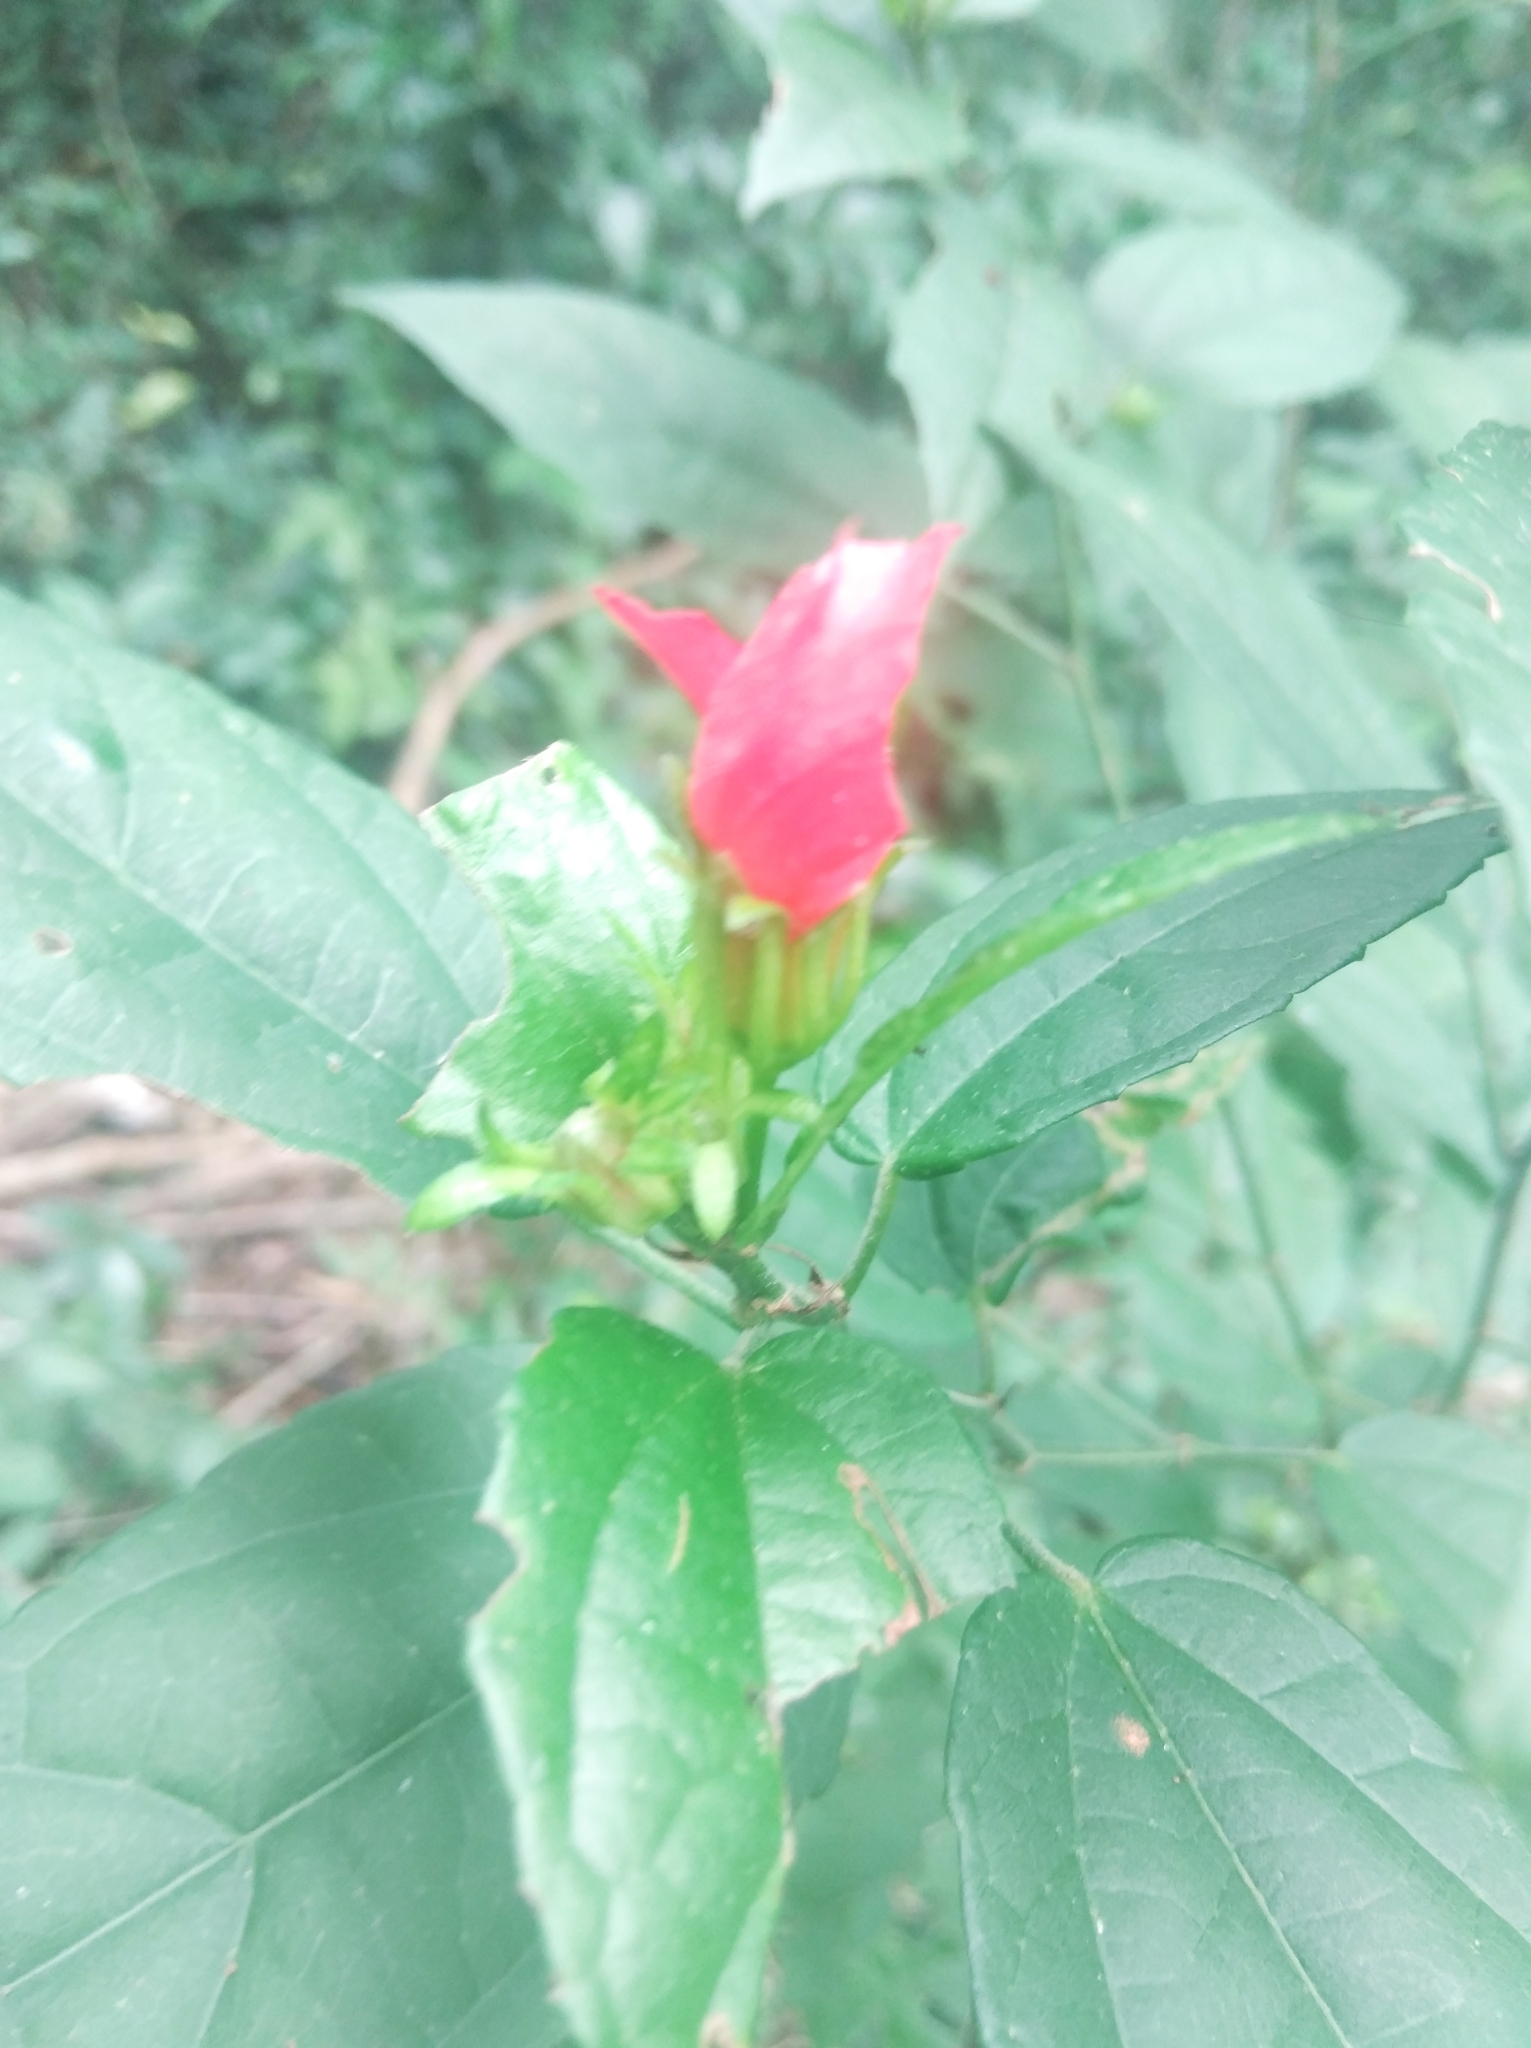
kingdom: Plantae
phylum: Tracheophyta
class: Magnoliopsida
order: Malvales
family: Malvaceae
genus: Malvaviscus
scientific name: Malvaviscus arboreus
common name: Wax mallow
